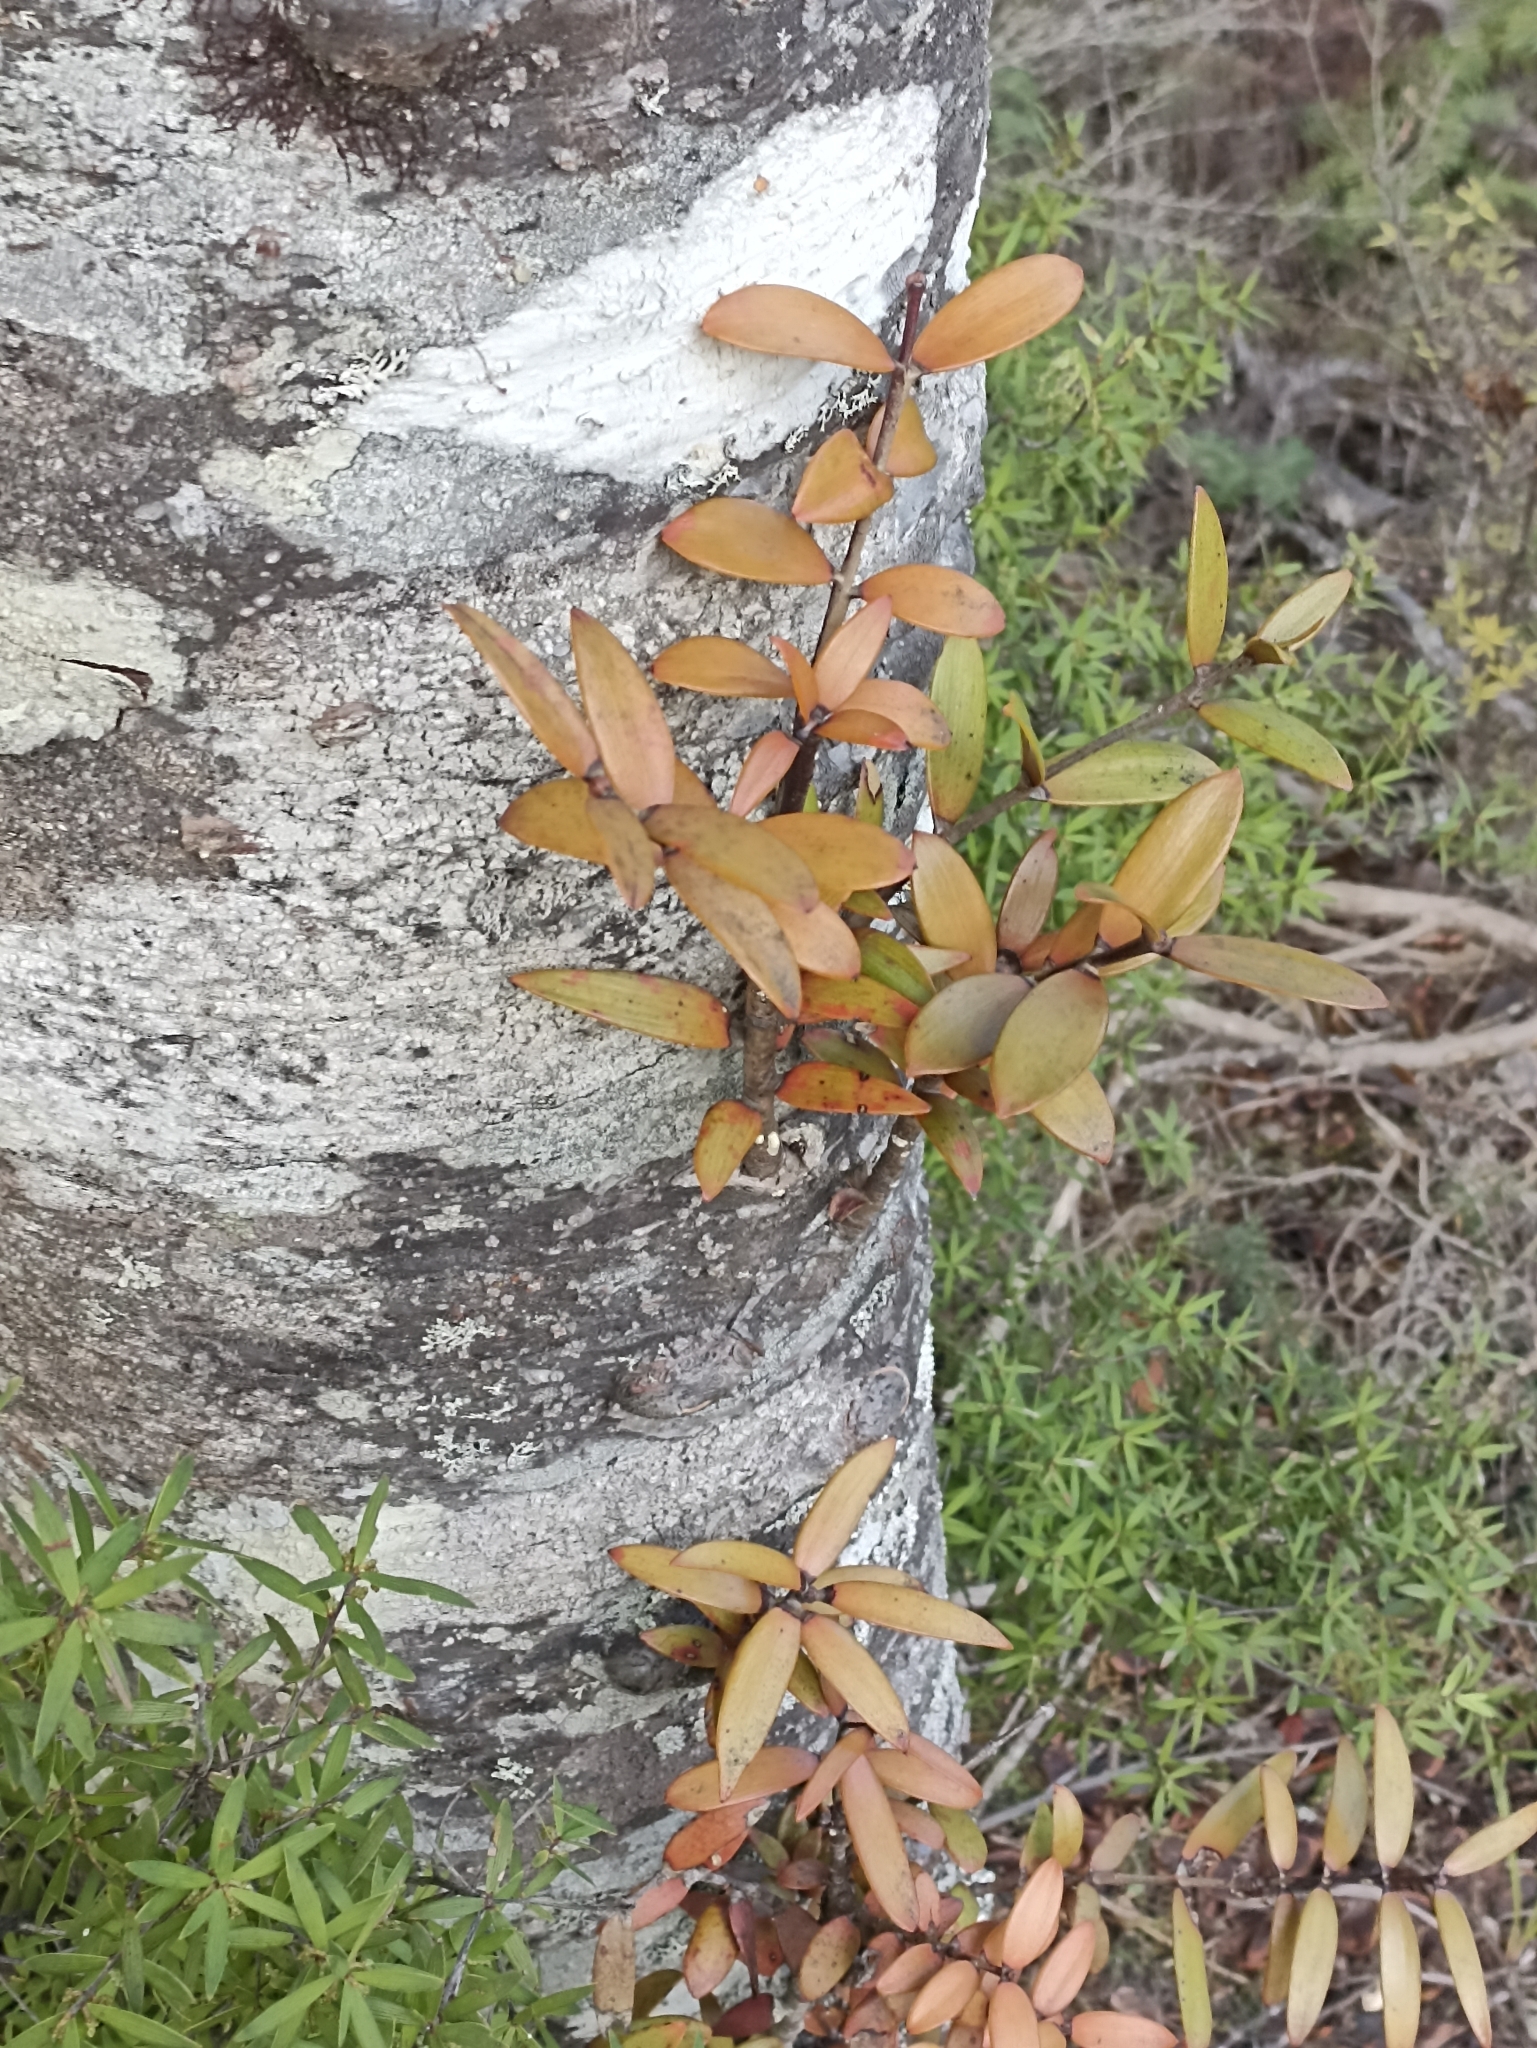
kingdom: Plantae
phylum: Tracheophyta
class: Pinopsida
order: Pinales
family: Araucariaceae
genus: Agathis
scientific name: Agathis australis
